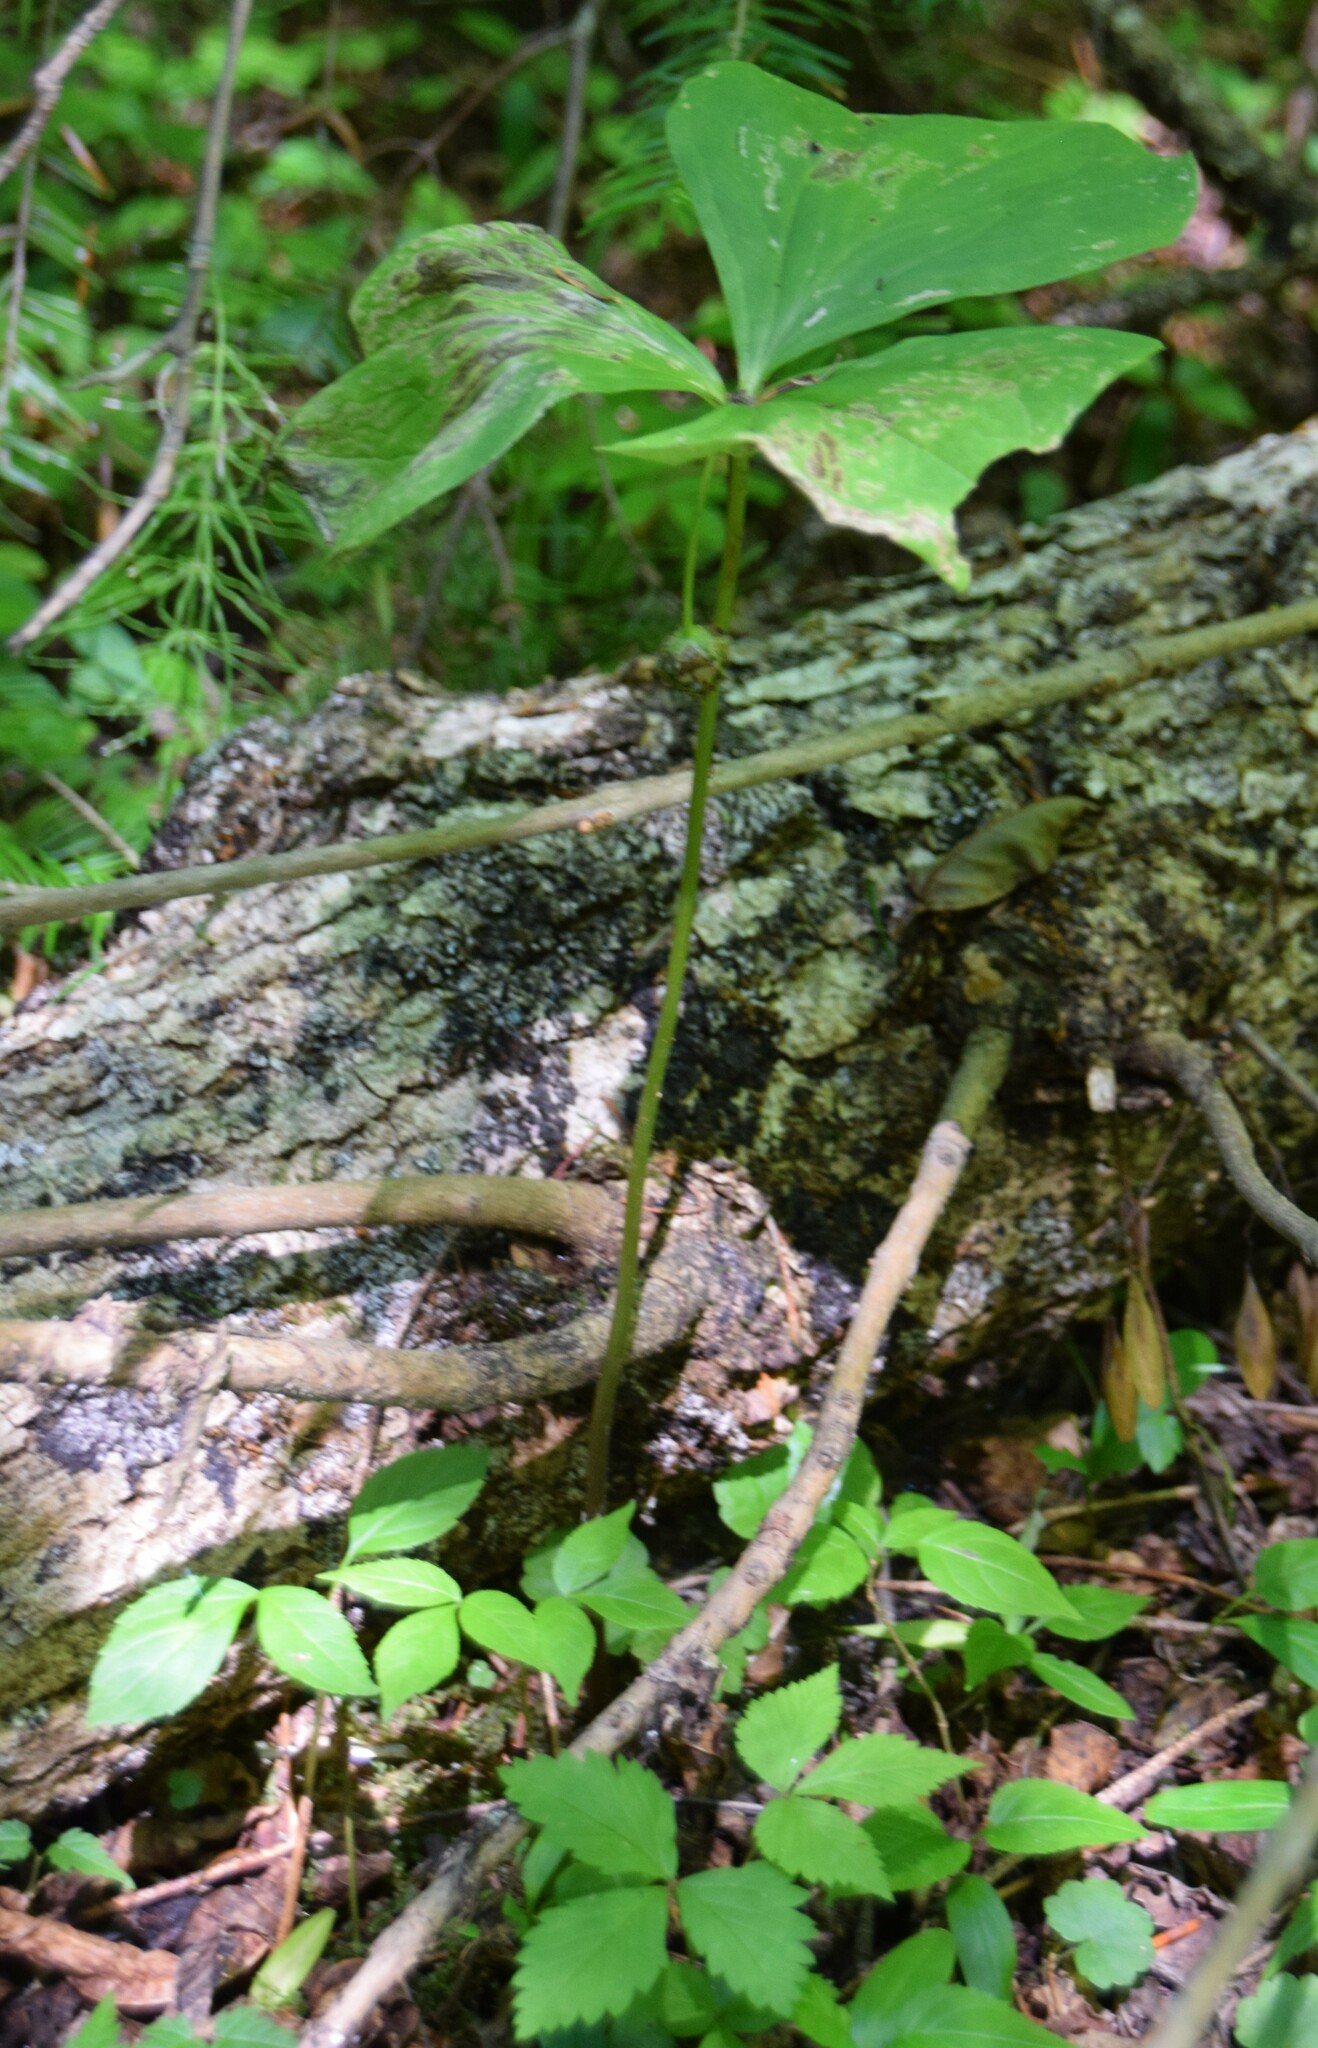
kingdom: Plantae
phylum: Tracheophyta
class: Liliopsida
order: Liliales
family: Melanthiaceae
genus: Trillium
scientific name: Trillium cernuum
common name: Nodding trillium
